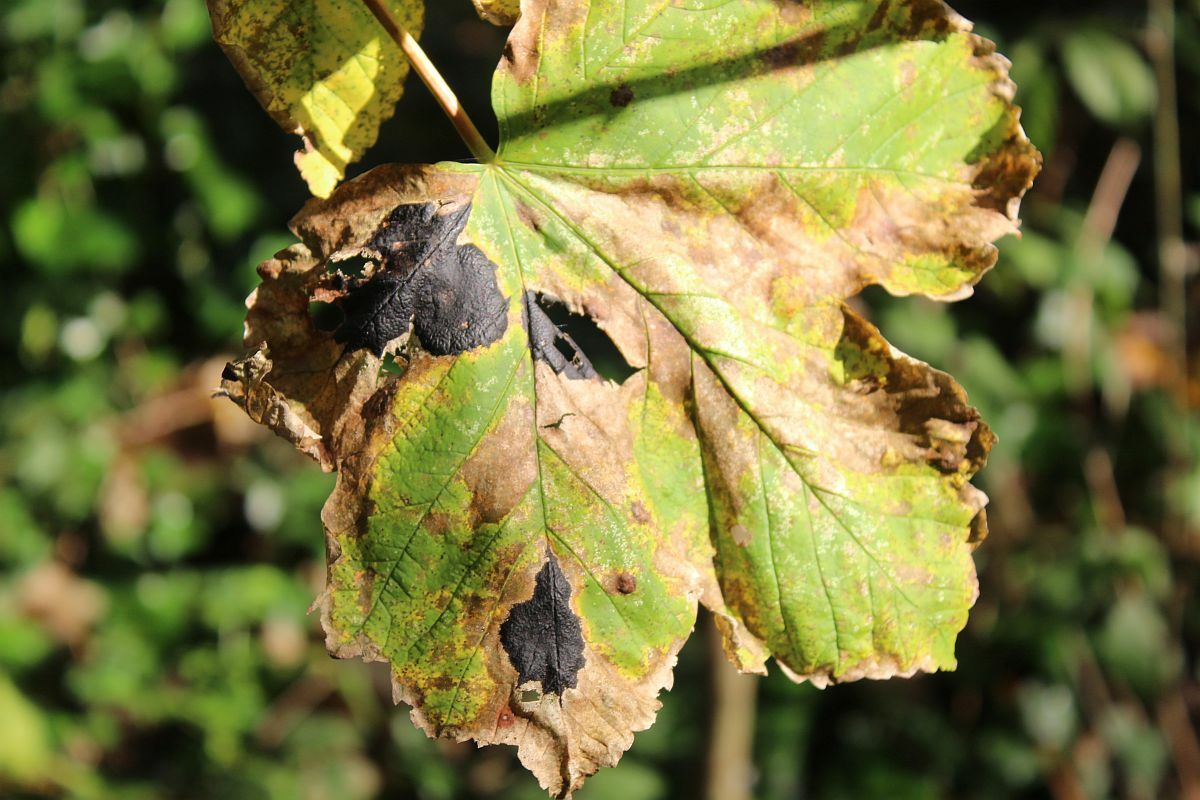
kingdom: Fungi
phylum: Ascomycota
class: Leotiomycetes
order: Rhytismatales
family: Rhytismataceae
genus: Rhytisma
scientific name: Rhytisma acerinum
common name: European tar spot
